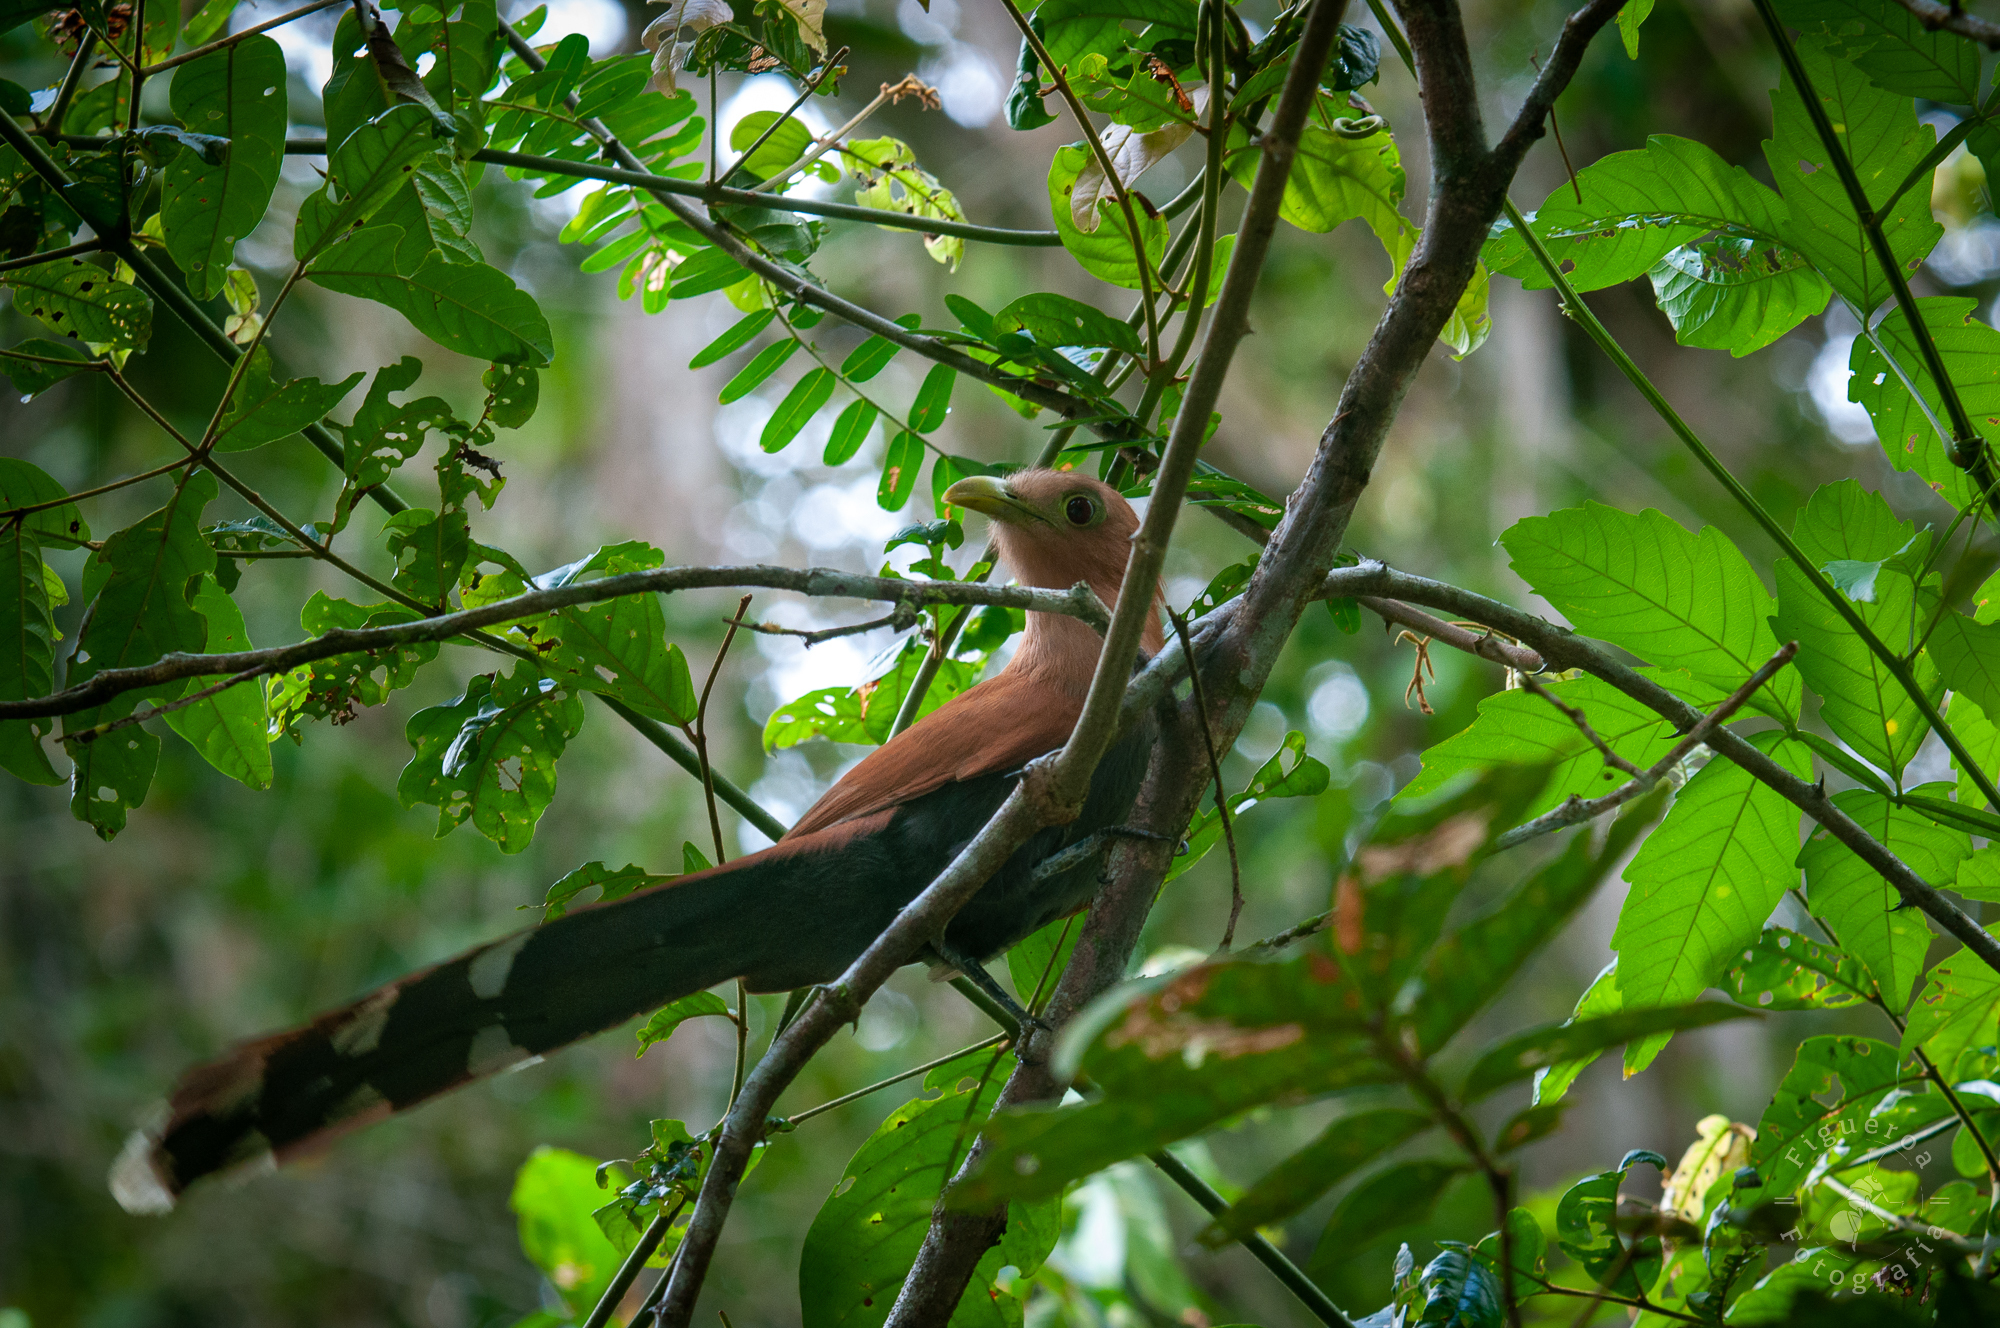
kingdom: Animalia
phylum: Chordata
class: Aves
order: Cuculiformes
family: Cuculidae
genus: Piaya
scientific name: Piaya cayana
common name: Squirrel cuckoo
